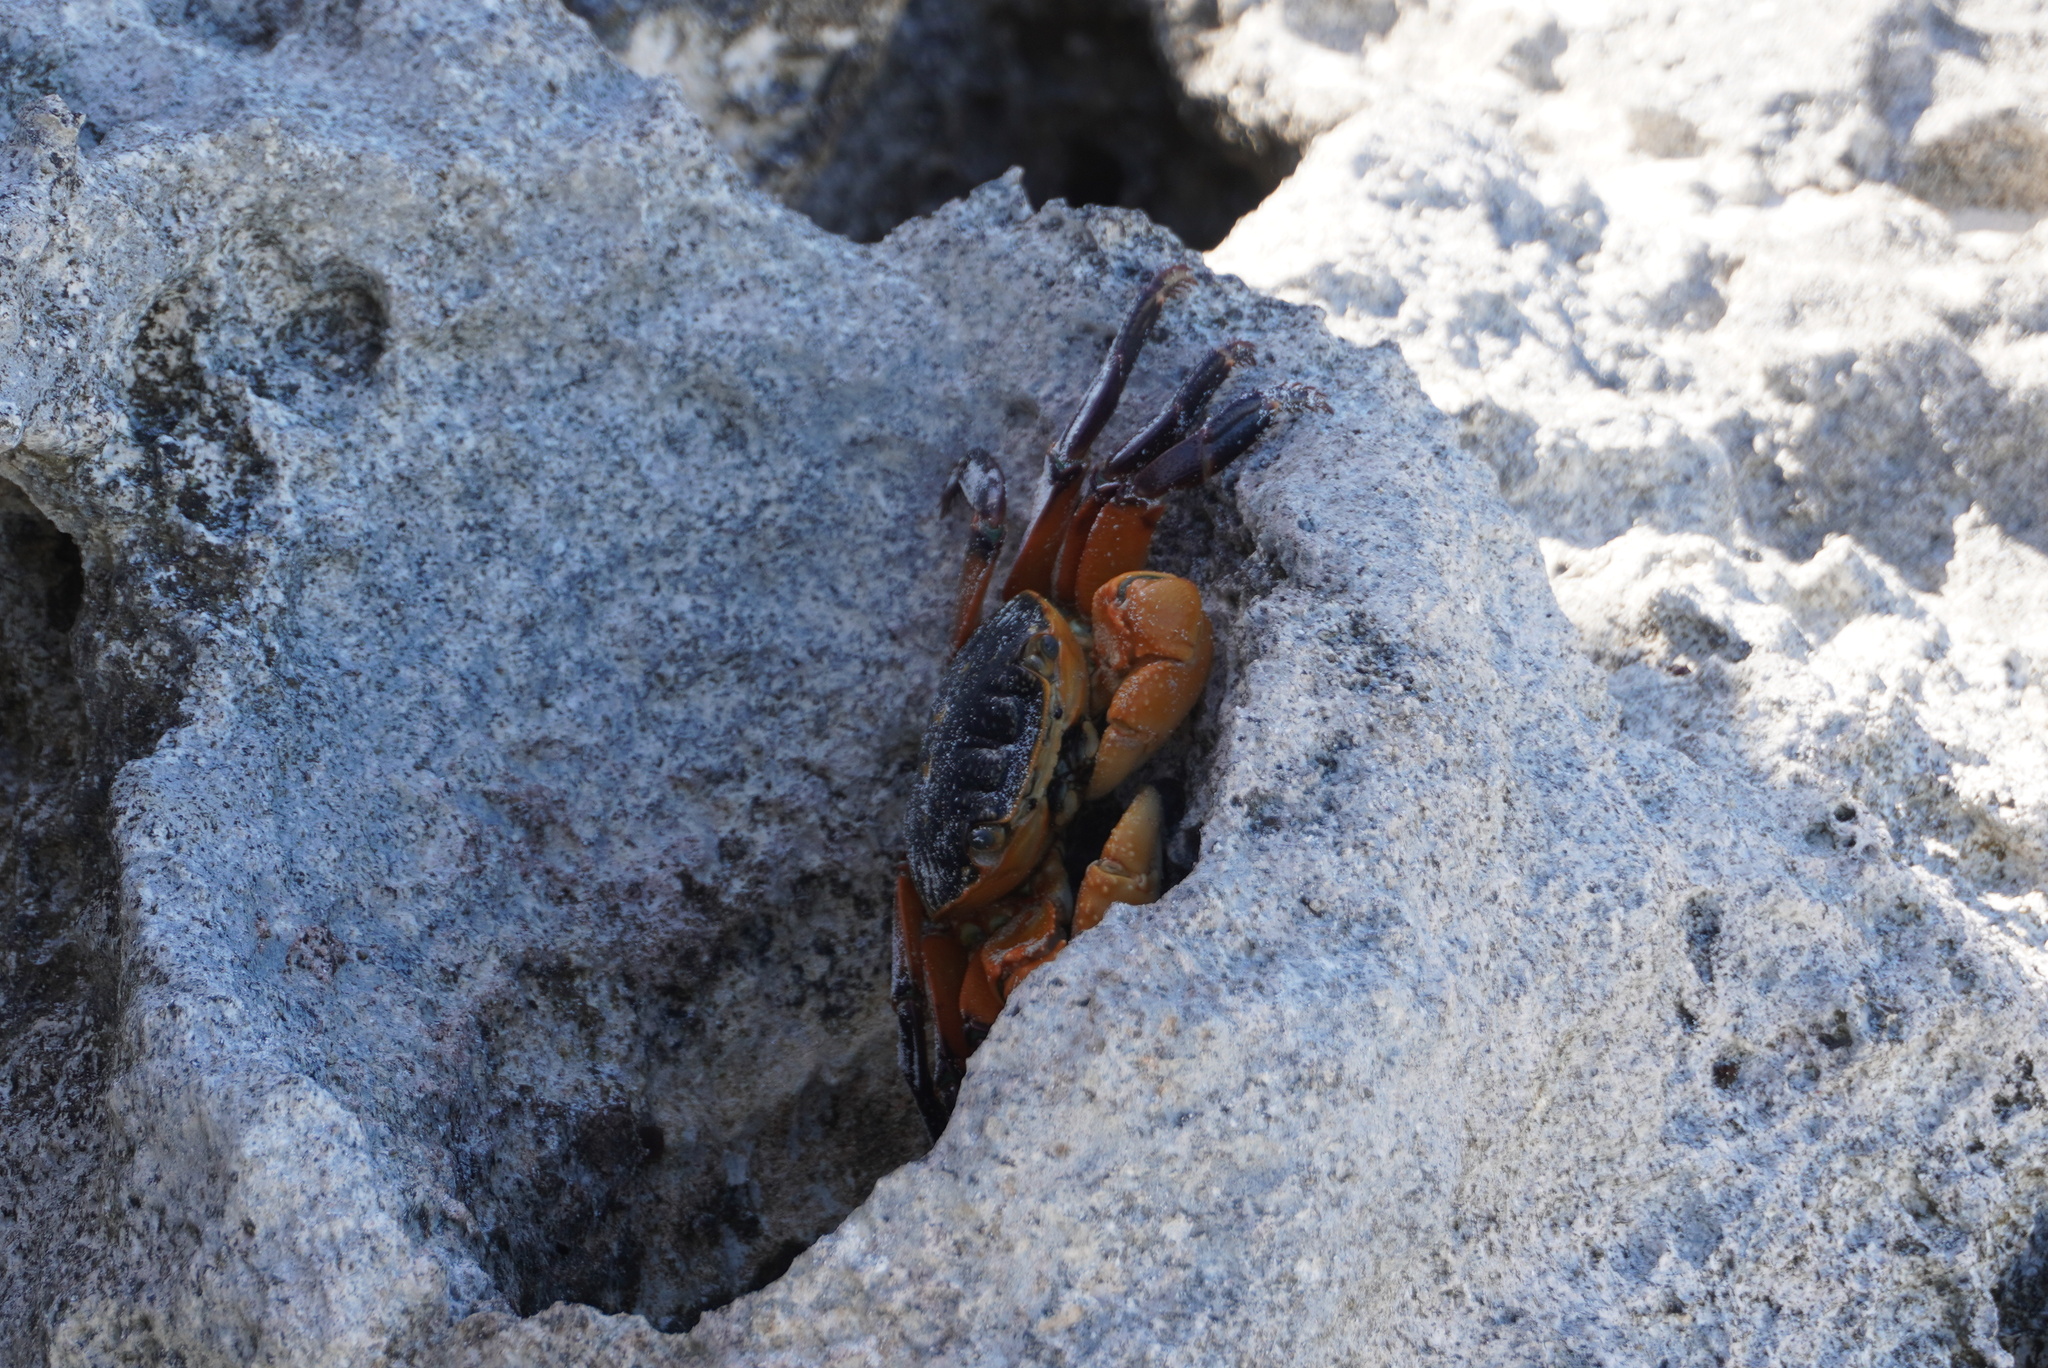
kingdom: Animalia
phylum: Arthropoda
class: Malacostraca
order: Decapoda
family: Grapsidae
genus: Leptograpsus
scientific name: Leptograpsus variegatus
